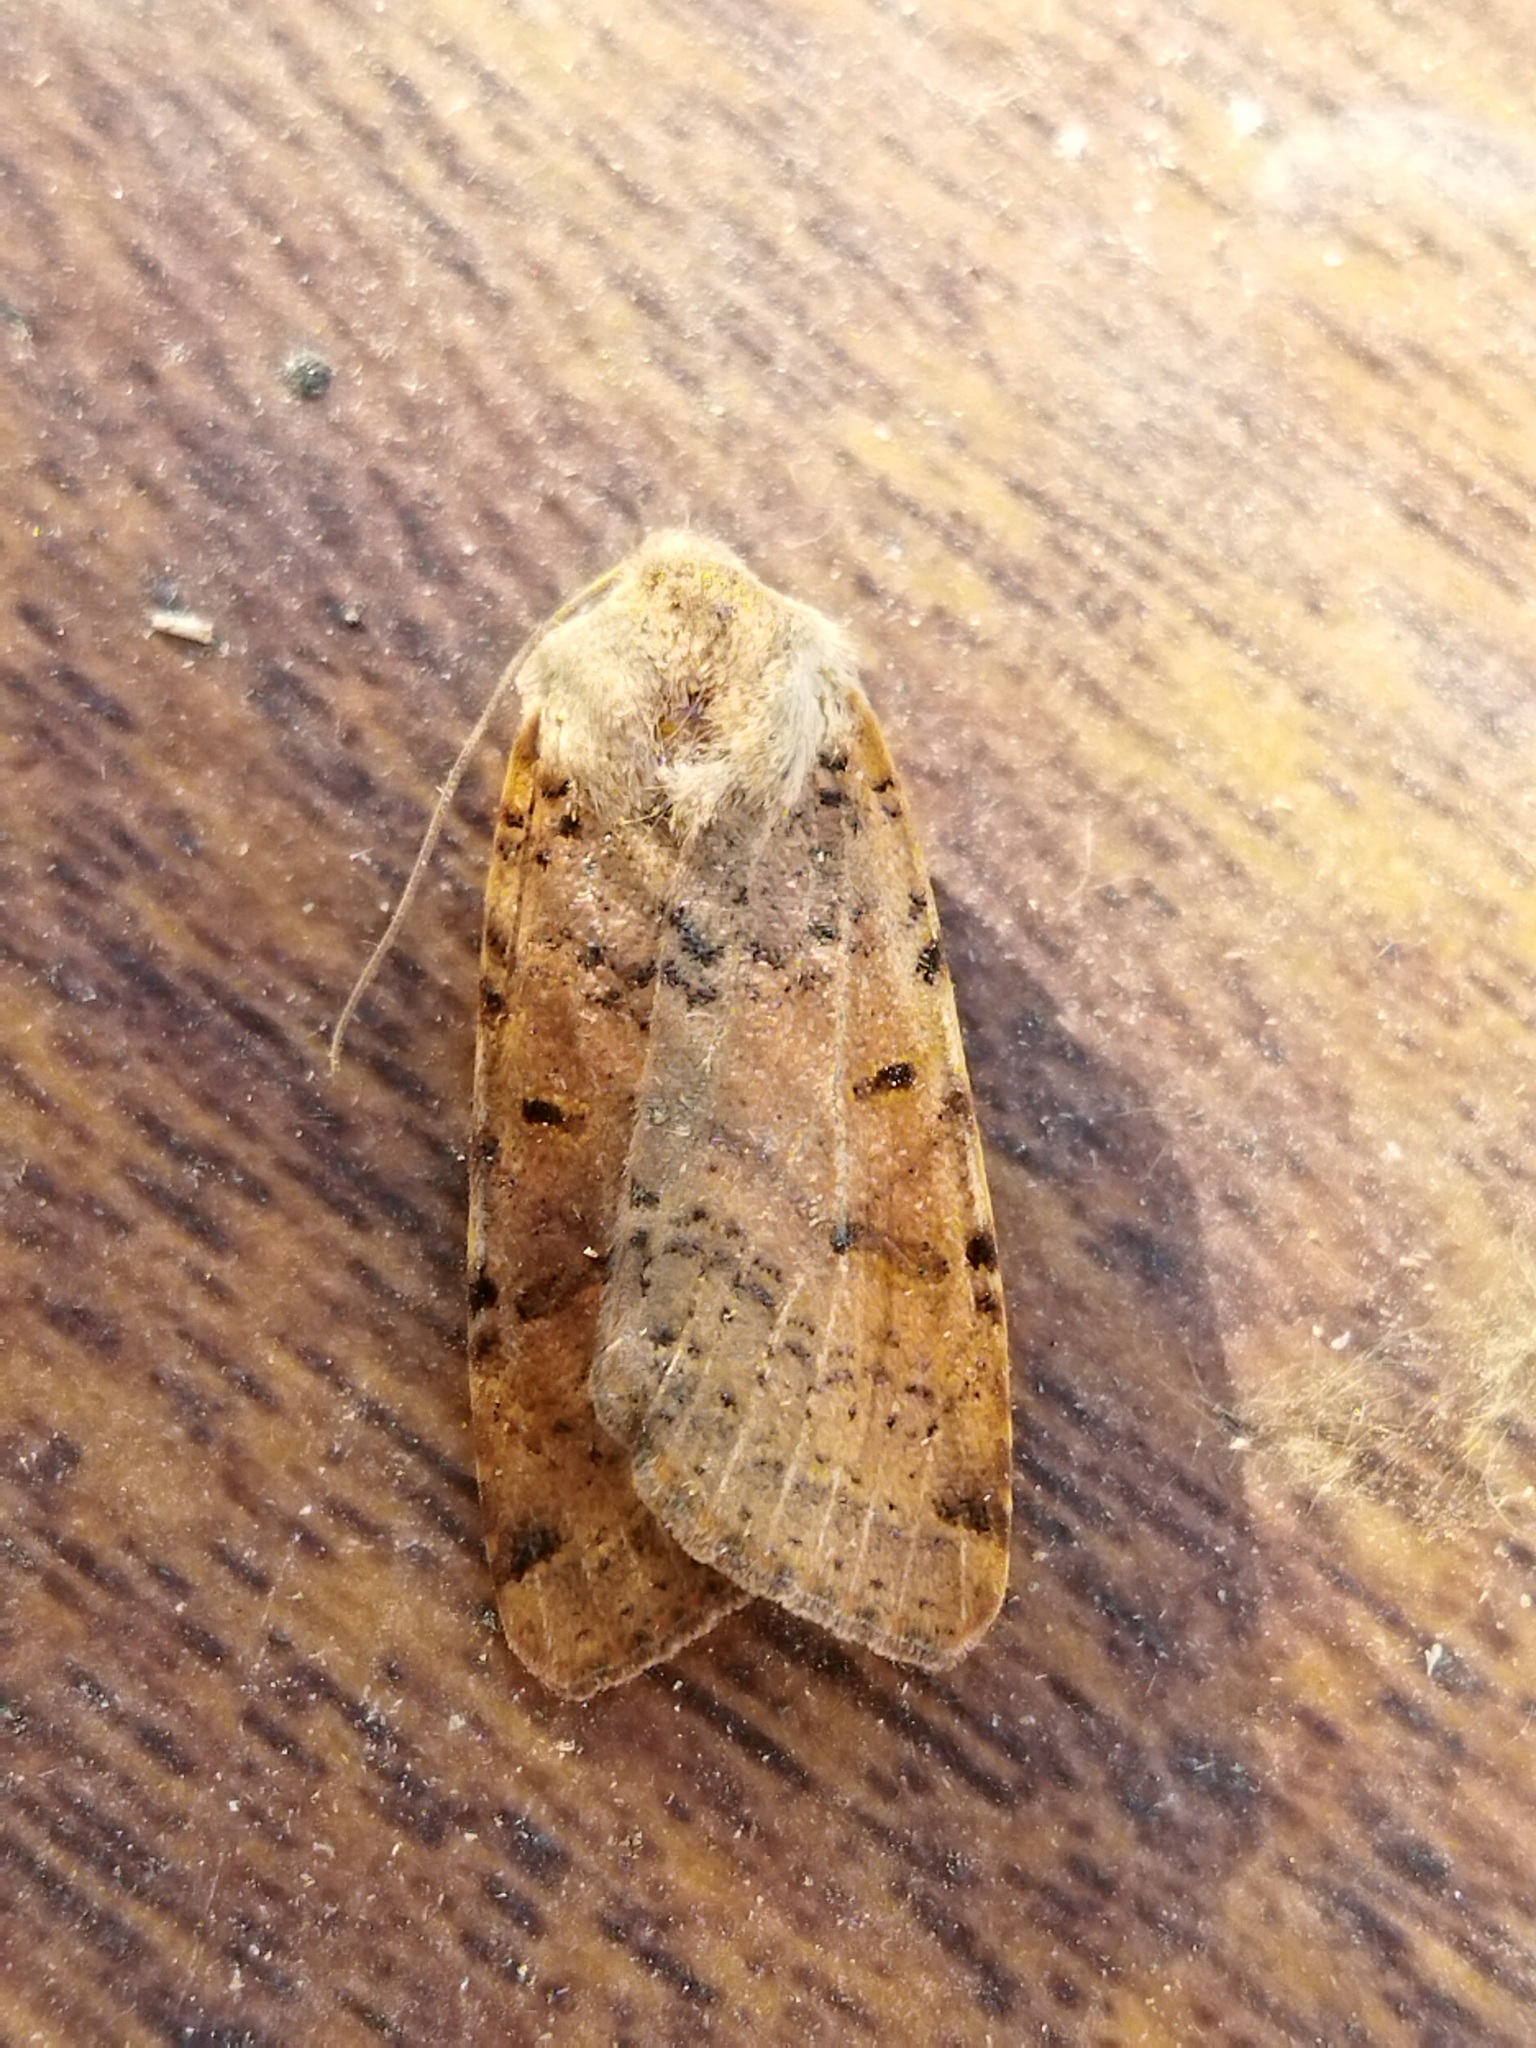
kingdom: Animalia
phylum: Arthropoda
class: Insecta
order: Lepidoptera
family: Noctuidae
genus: Agrochola
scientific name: Agrochola lychnidis
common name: Beaded chestnut
